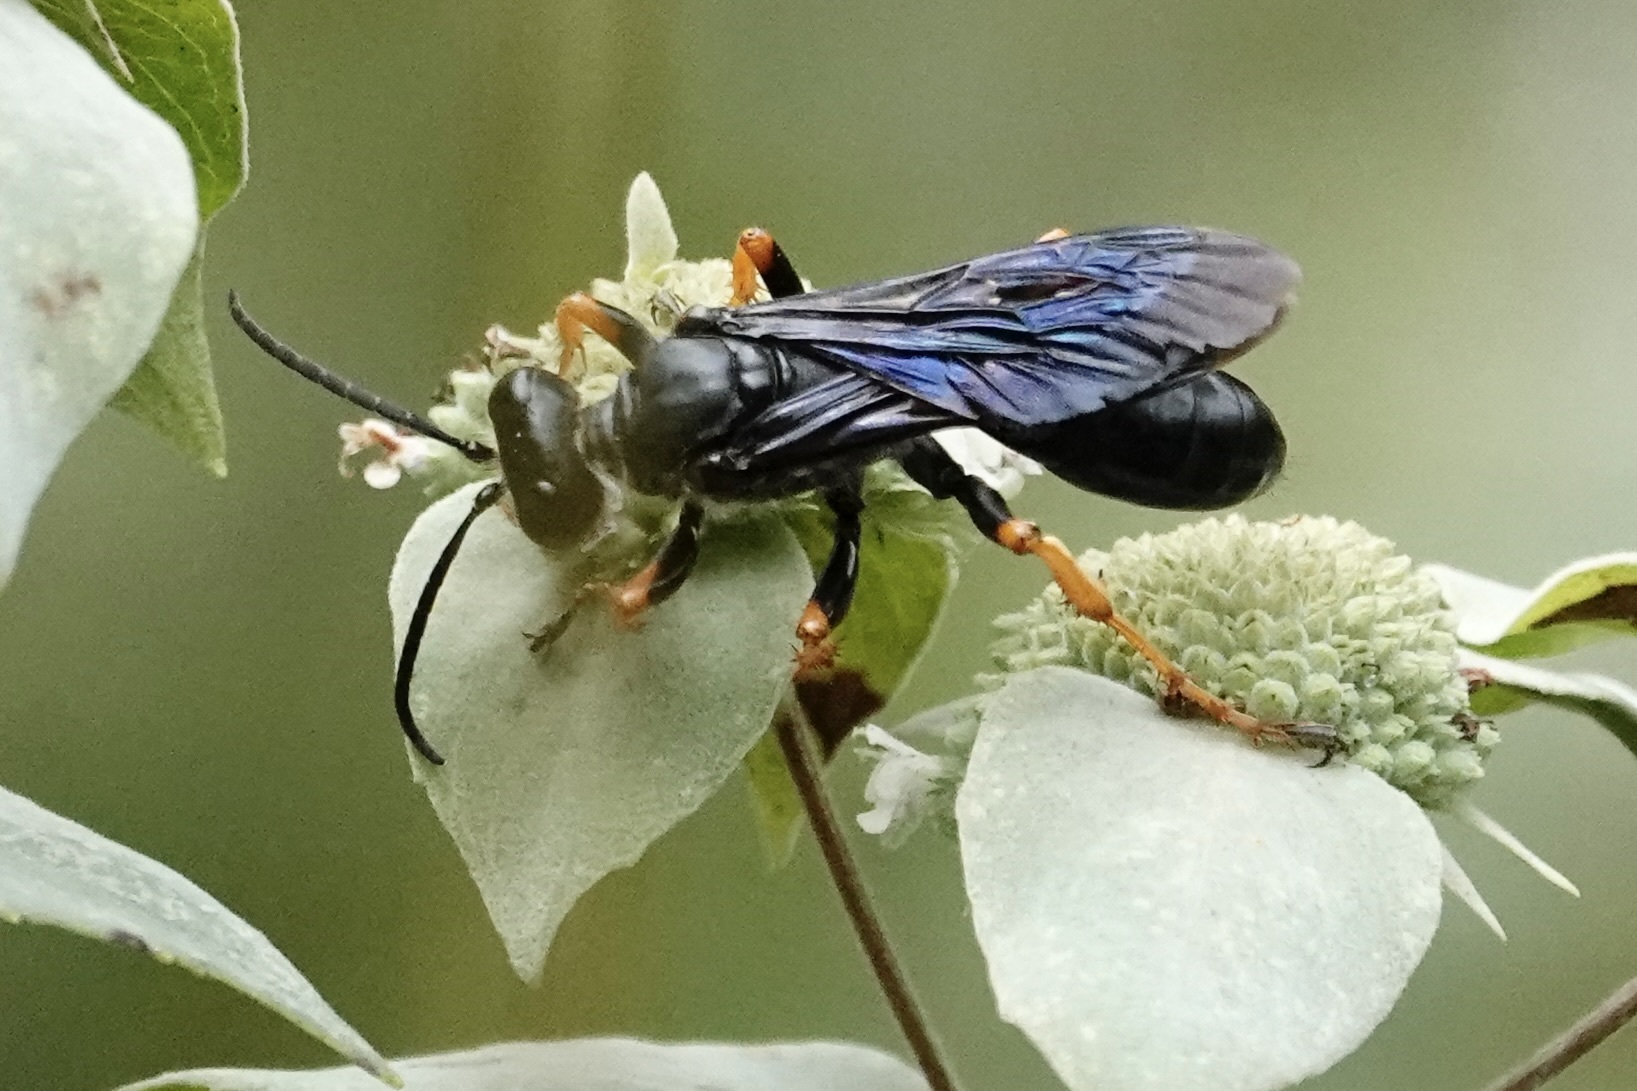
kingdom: Animalia
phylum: Arthropoda
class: Insecta
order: Hymenoptera
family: Sphecidae
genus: Sphex
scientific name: Sphex nudus
